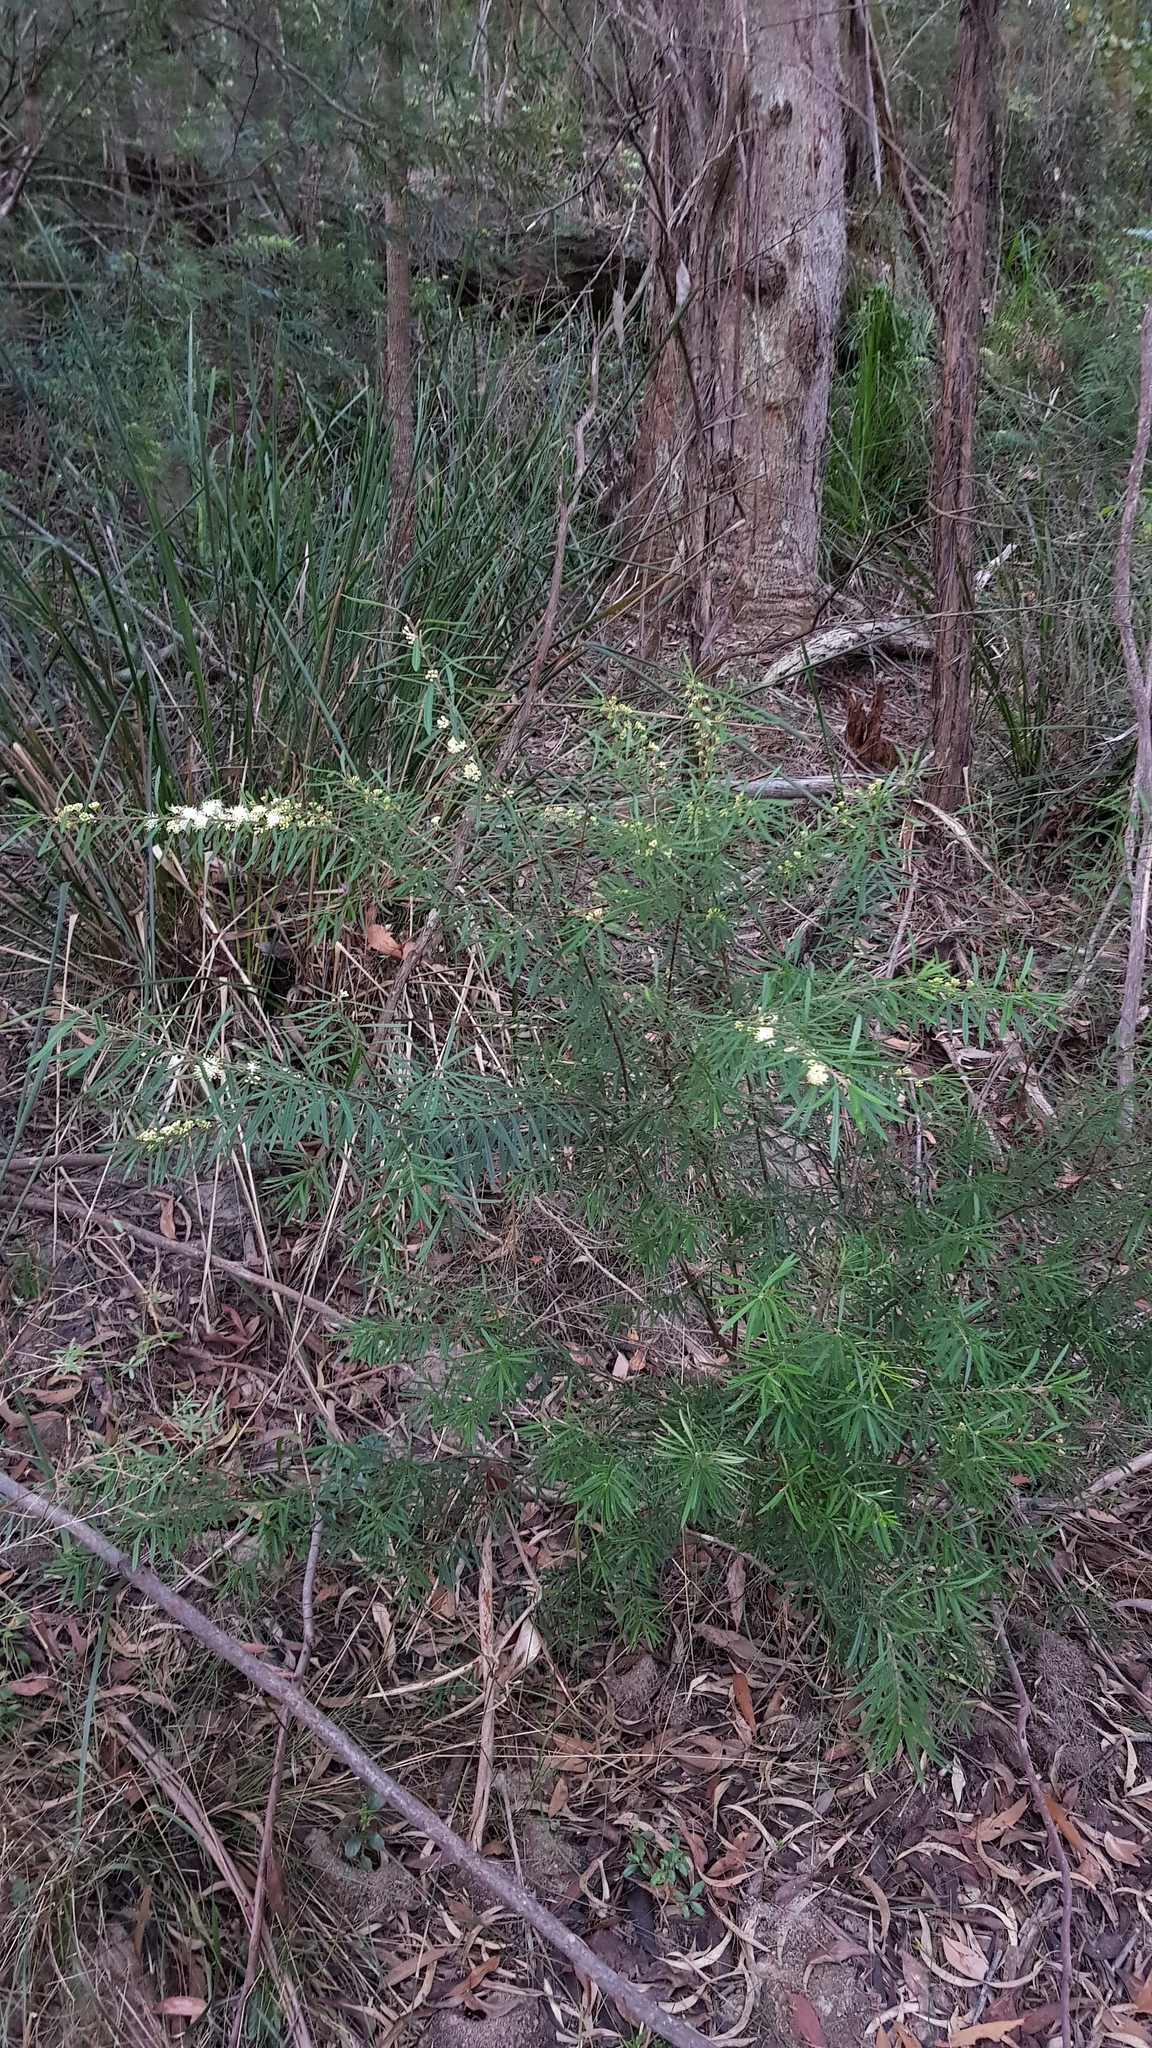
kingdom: Plantae
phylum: Tracheophyta
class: Magnoliopsida
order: Sapindales
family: Rutaceae
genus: Leionema
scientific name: Leionema dentatum
